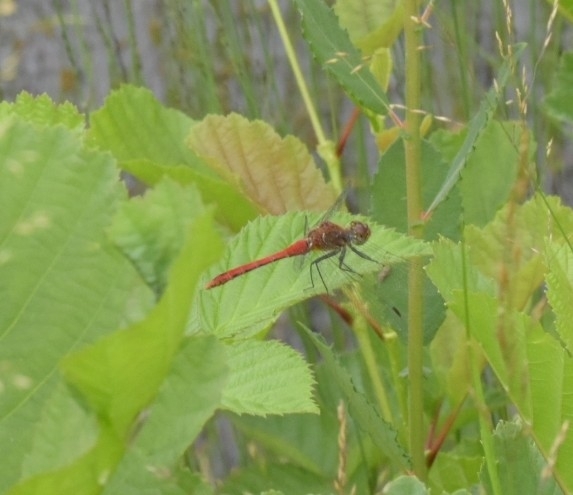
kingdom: Animalia
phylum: Arthropoda
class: Insecta
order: Odonata
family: Libellulidae
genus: Sympetrum
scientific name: Sympetrum sanguineum
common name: Ruddy darter
